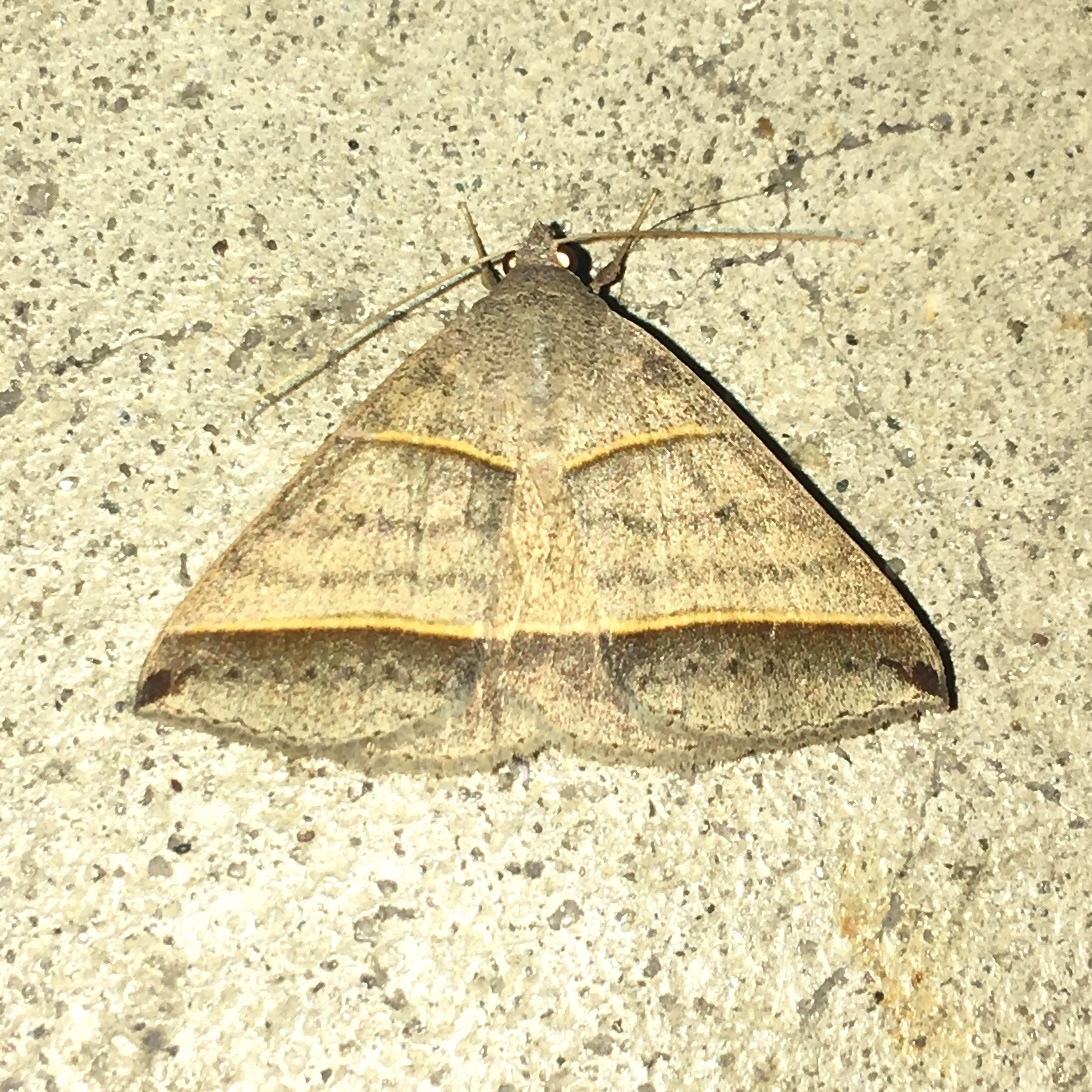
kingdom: Animalia
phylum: Arthropoda
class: Insecta
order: Lepidoptera
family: Erebidae
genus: Ptichodis
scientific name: Ptichodis vinculum
